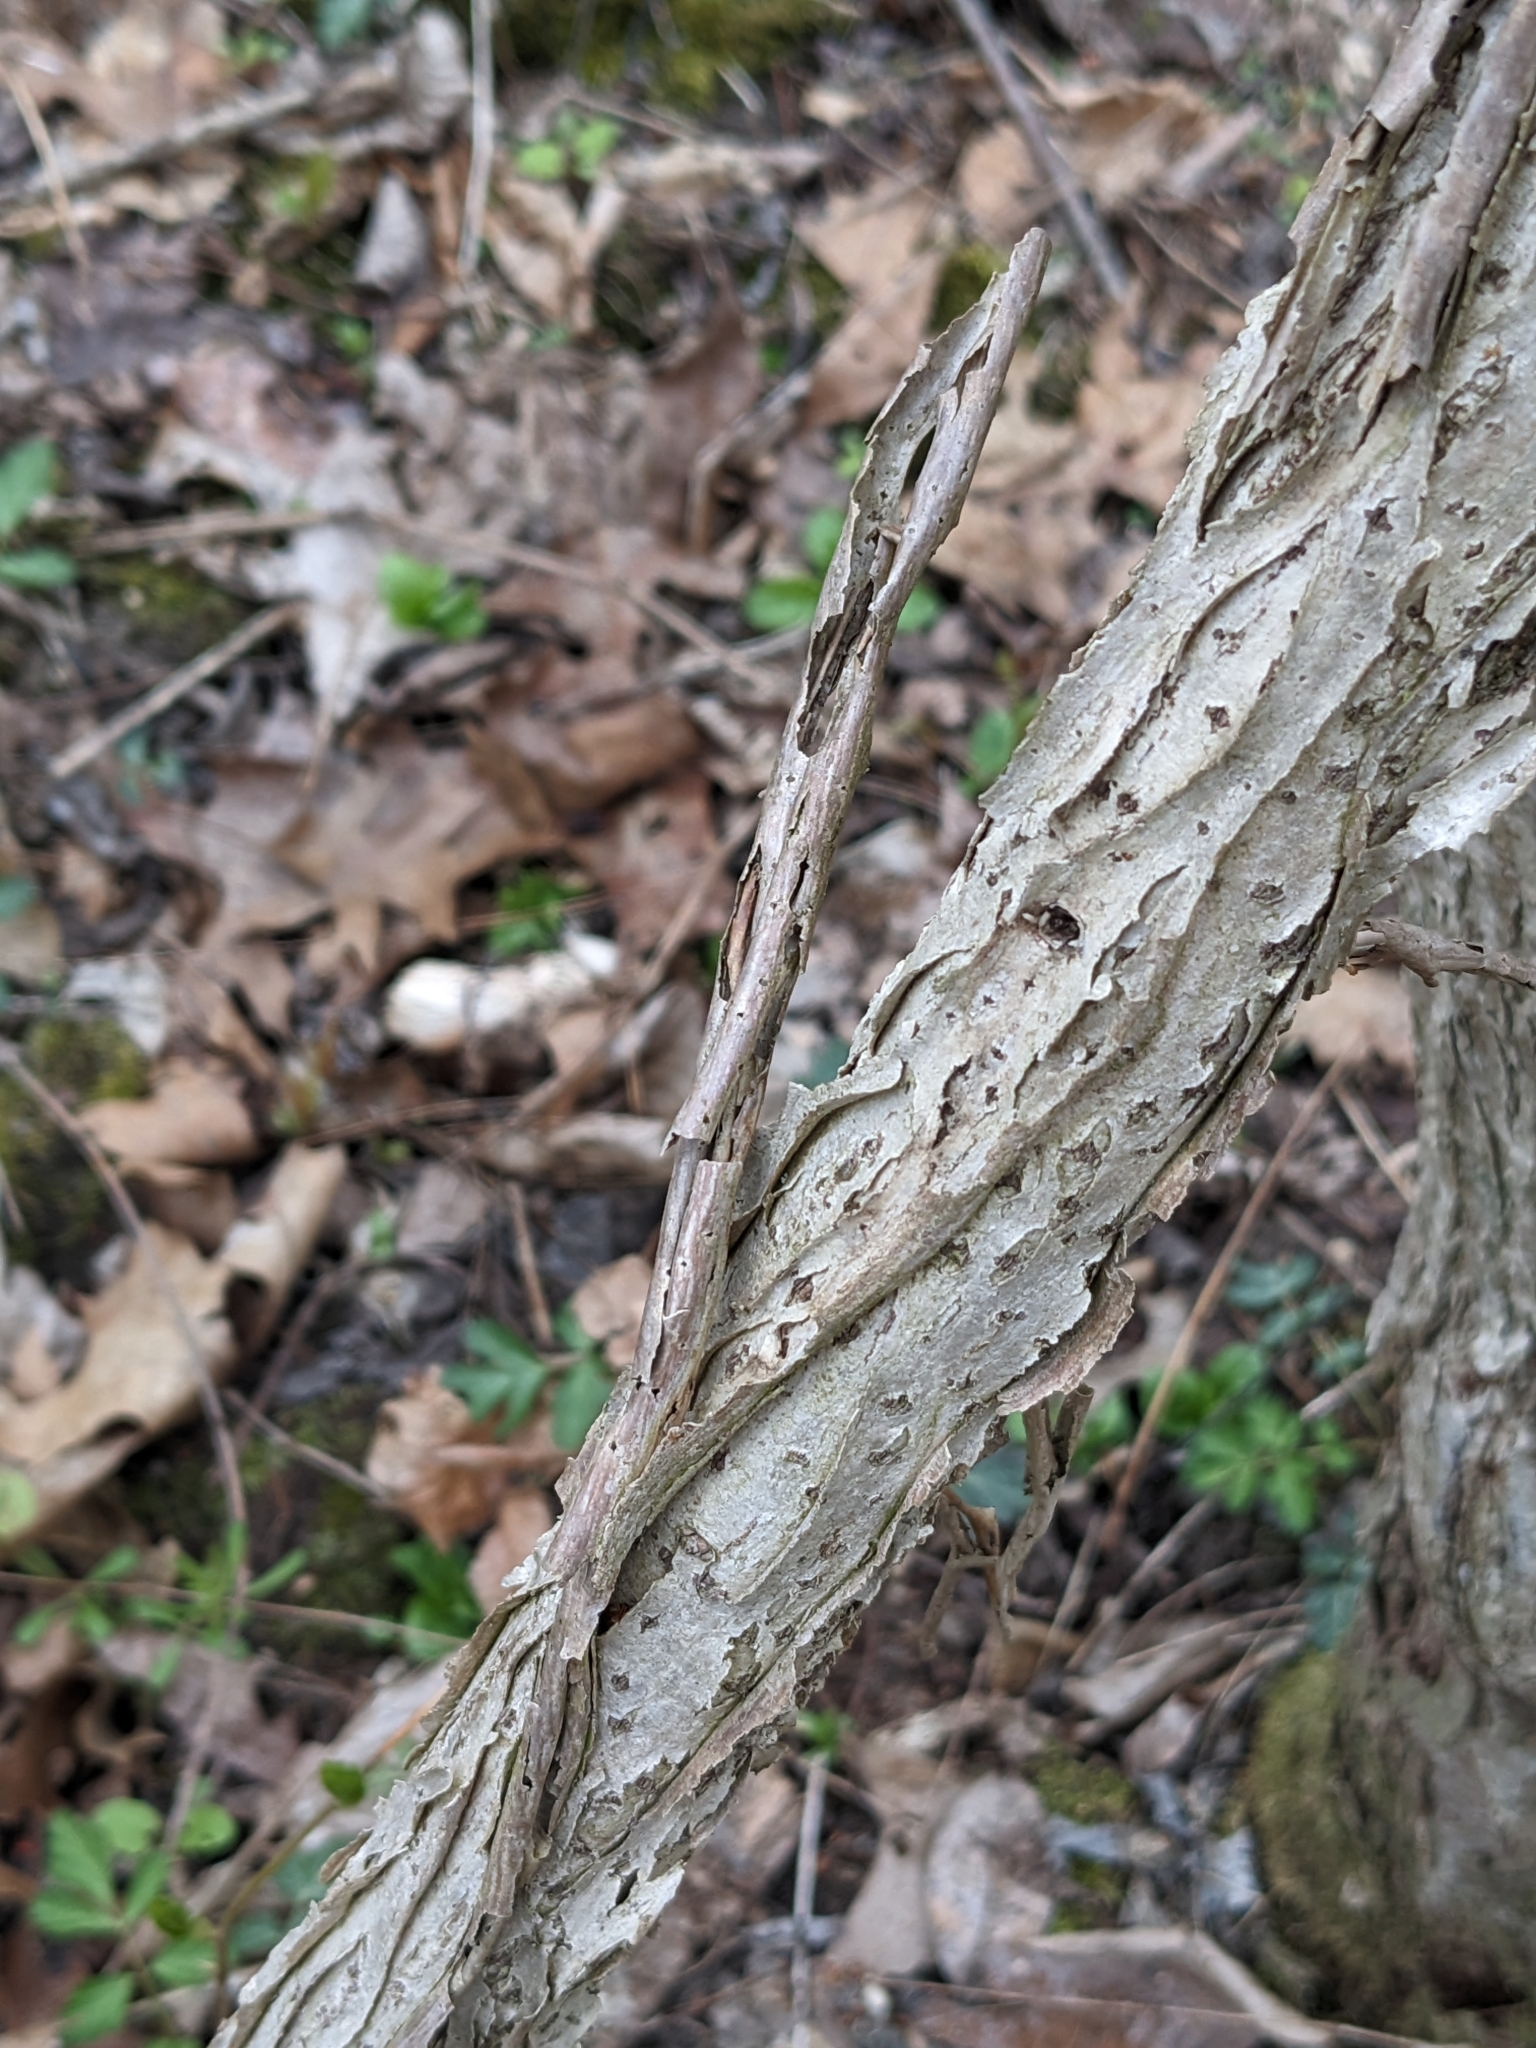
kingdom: Plantae
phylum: Tracheophyta
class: Magnoliopsida
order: Celastrales
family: Celastraceae
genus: Celastrus
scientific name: Celastrus orbiculatus
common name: Oriental bittersweet
